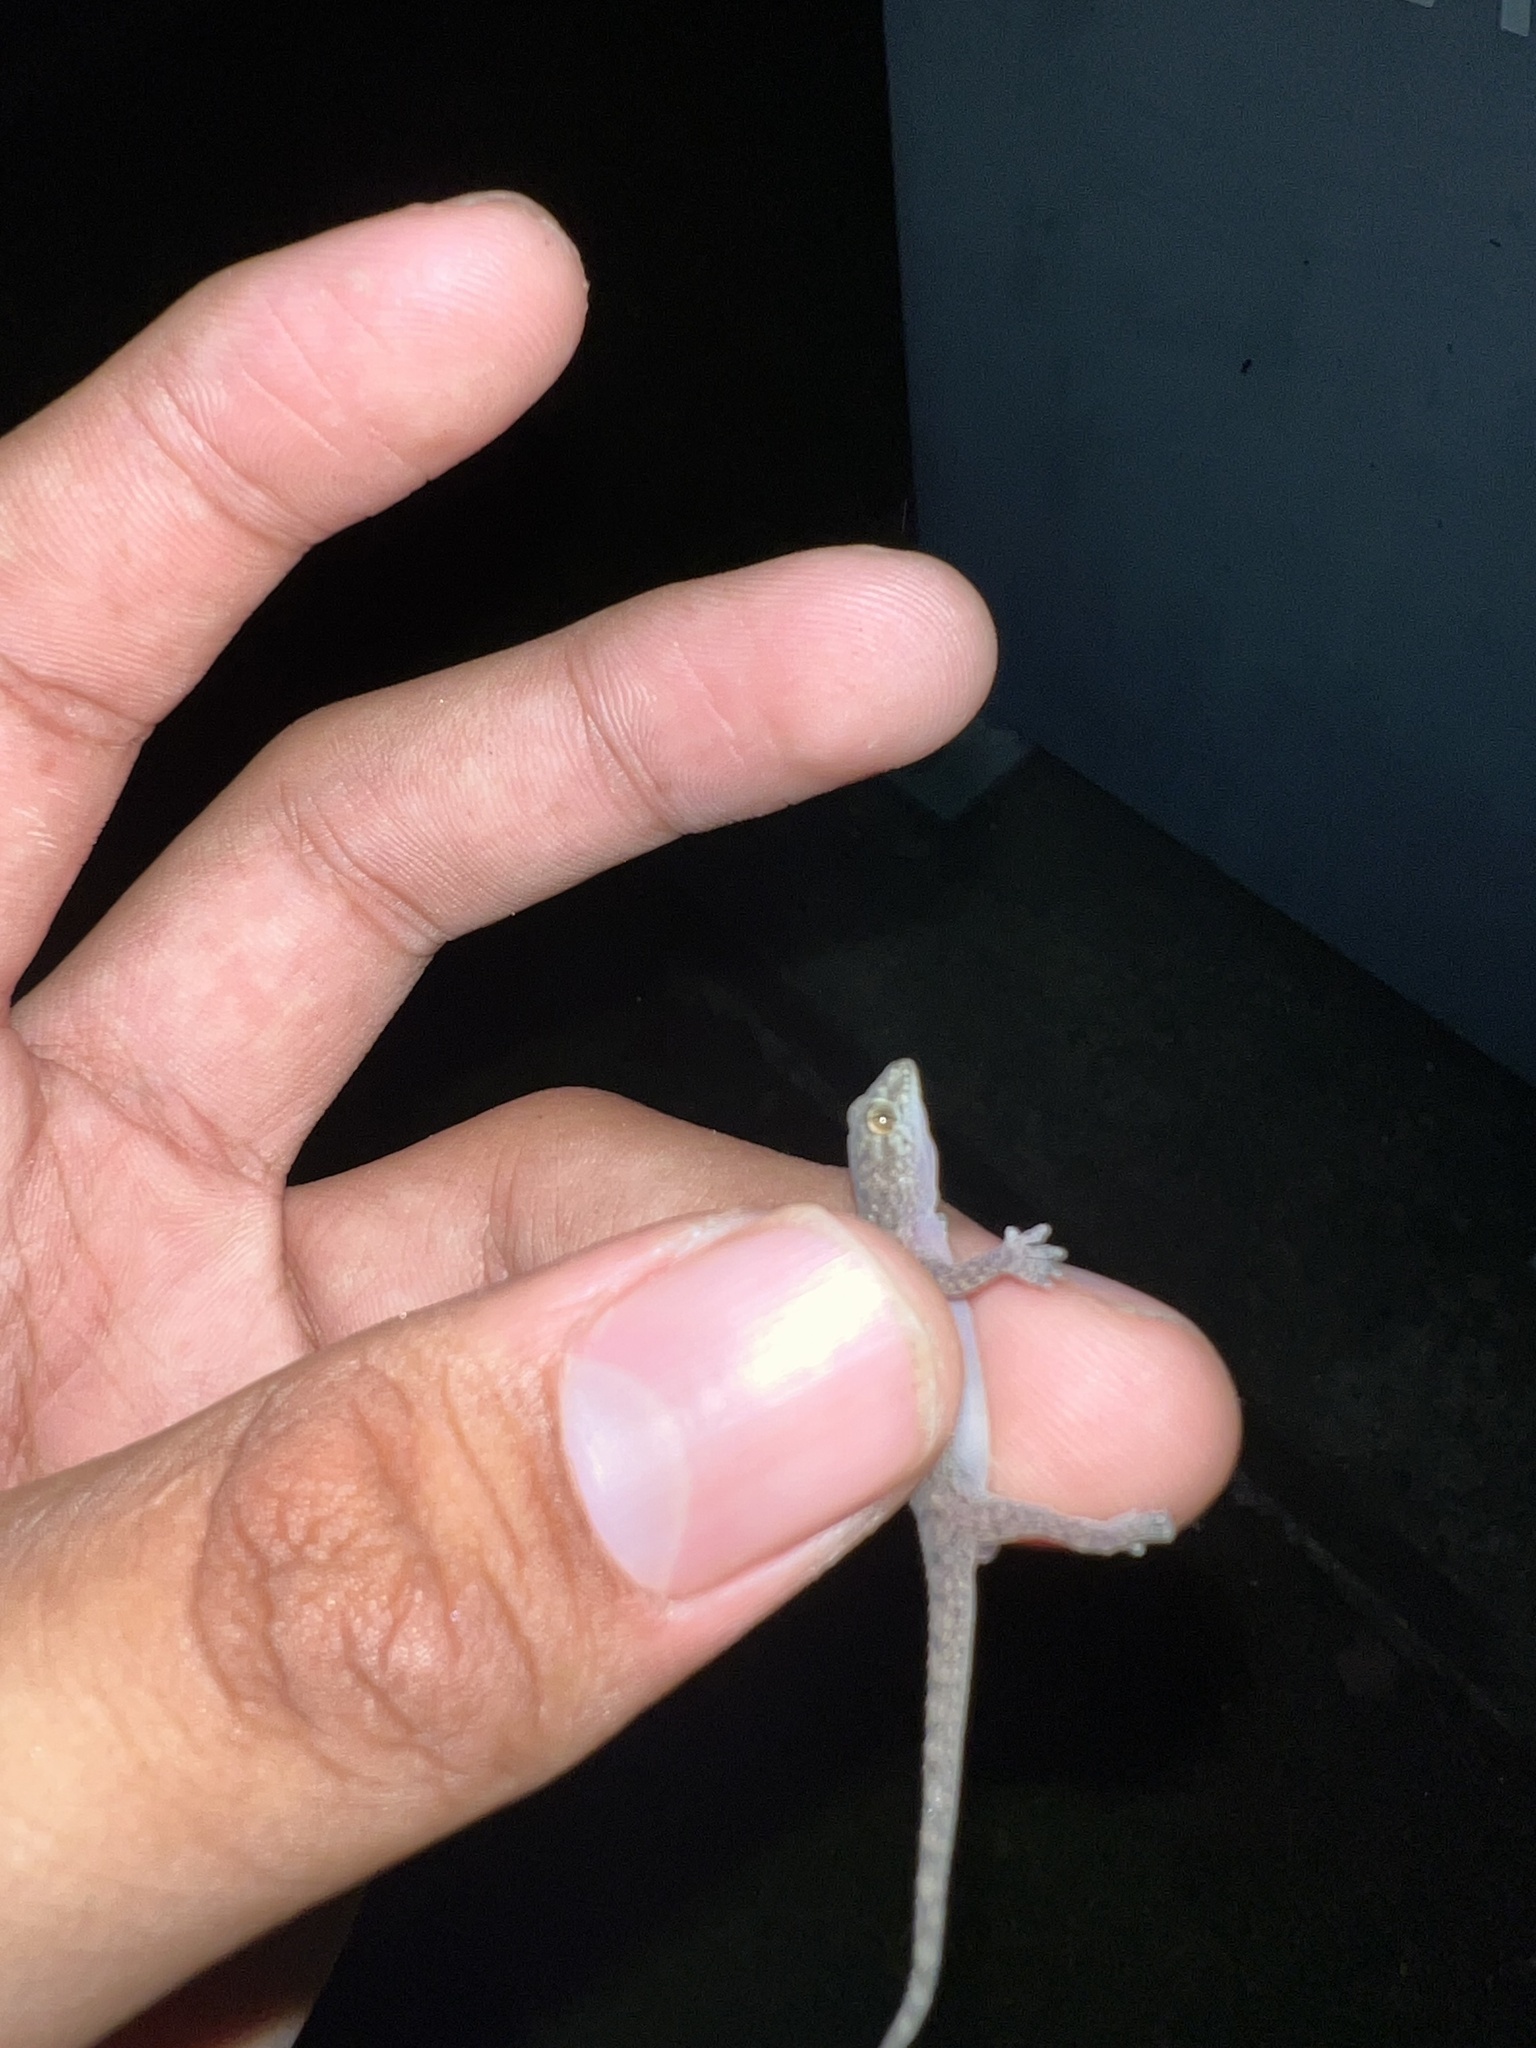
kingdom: Animalia
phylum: Chordata
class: Squamata
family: Gekkonidae
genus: Hemidactylus
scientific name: Hemidactylus parvimaculatus
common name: Spotted house gecko
